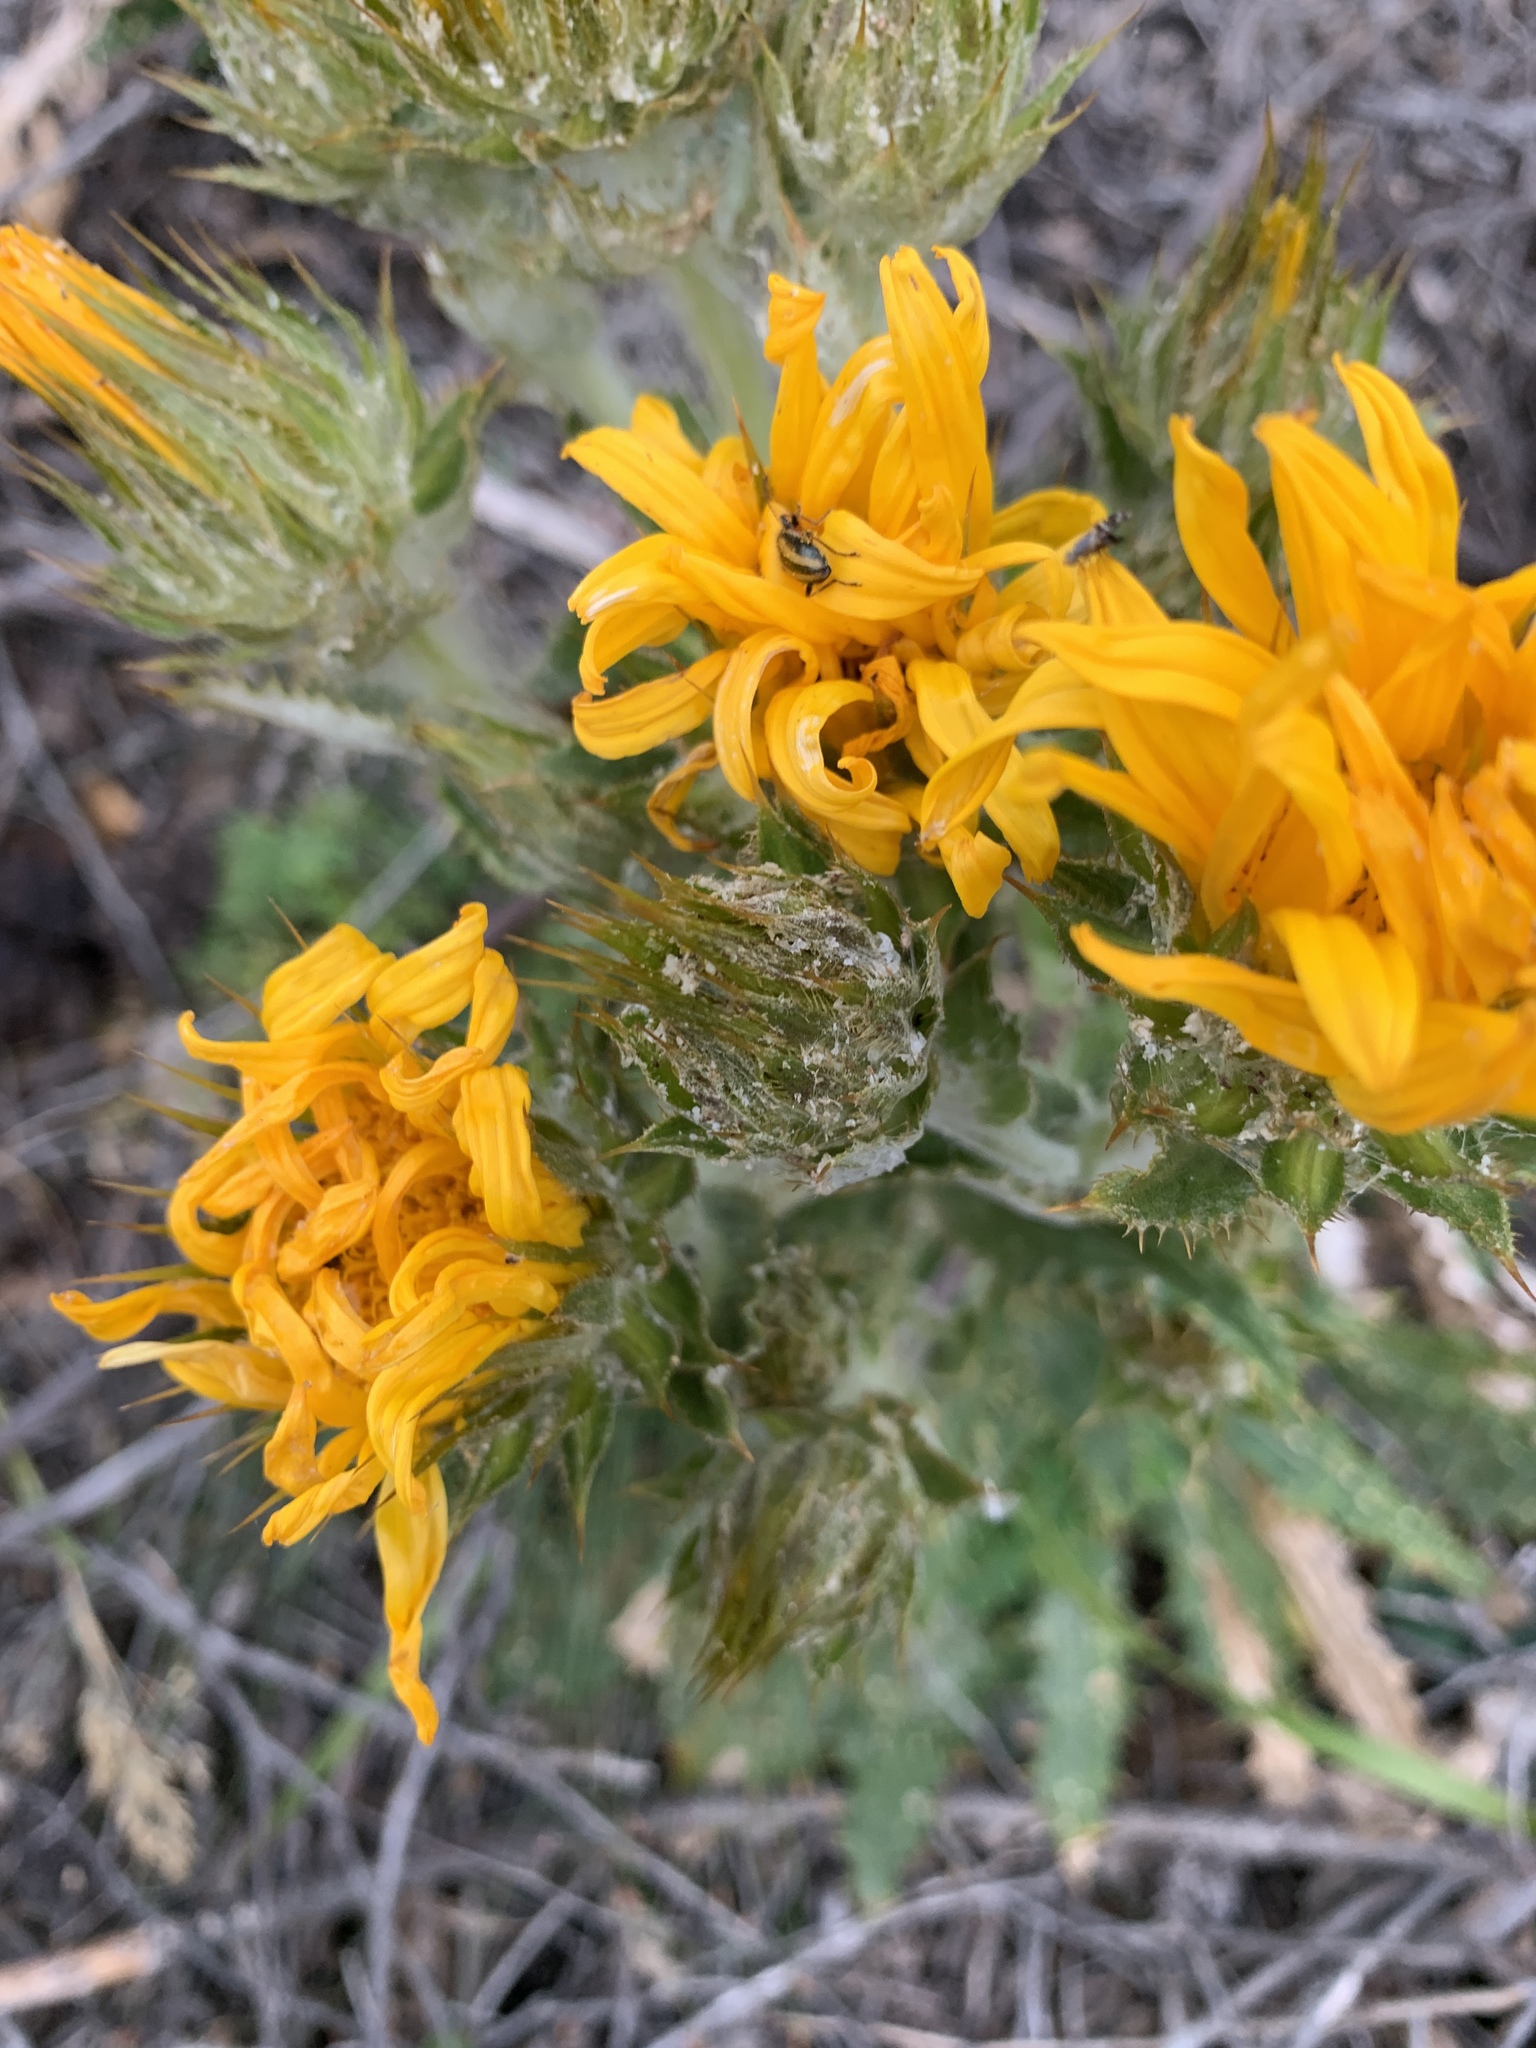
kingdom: Plantae
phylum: Tracheophyta
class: Magnoliopsida
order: Asterales
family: Asteraceae
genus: Berkheya
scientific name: Berkheya armata
